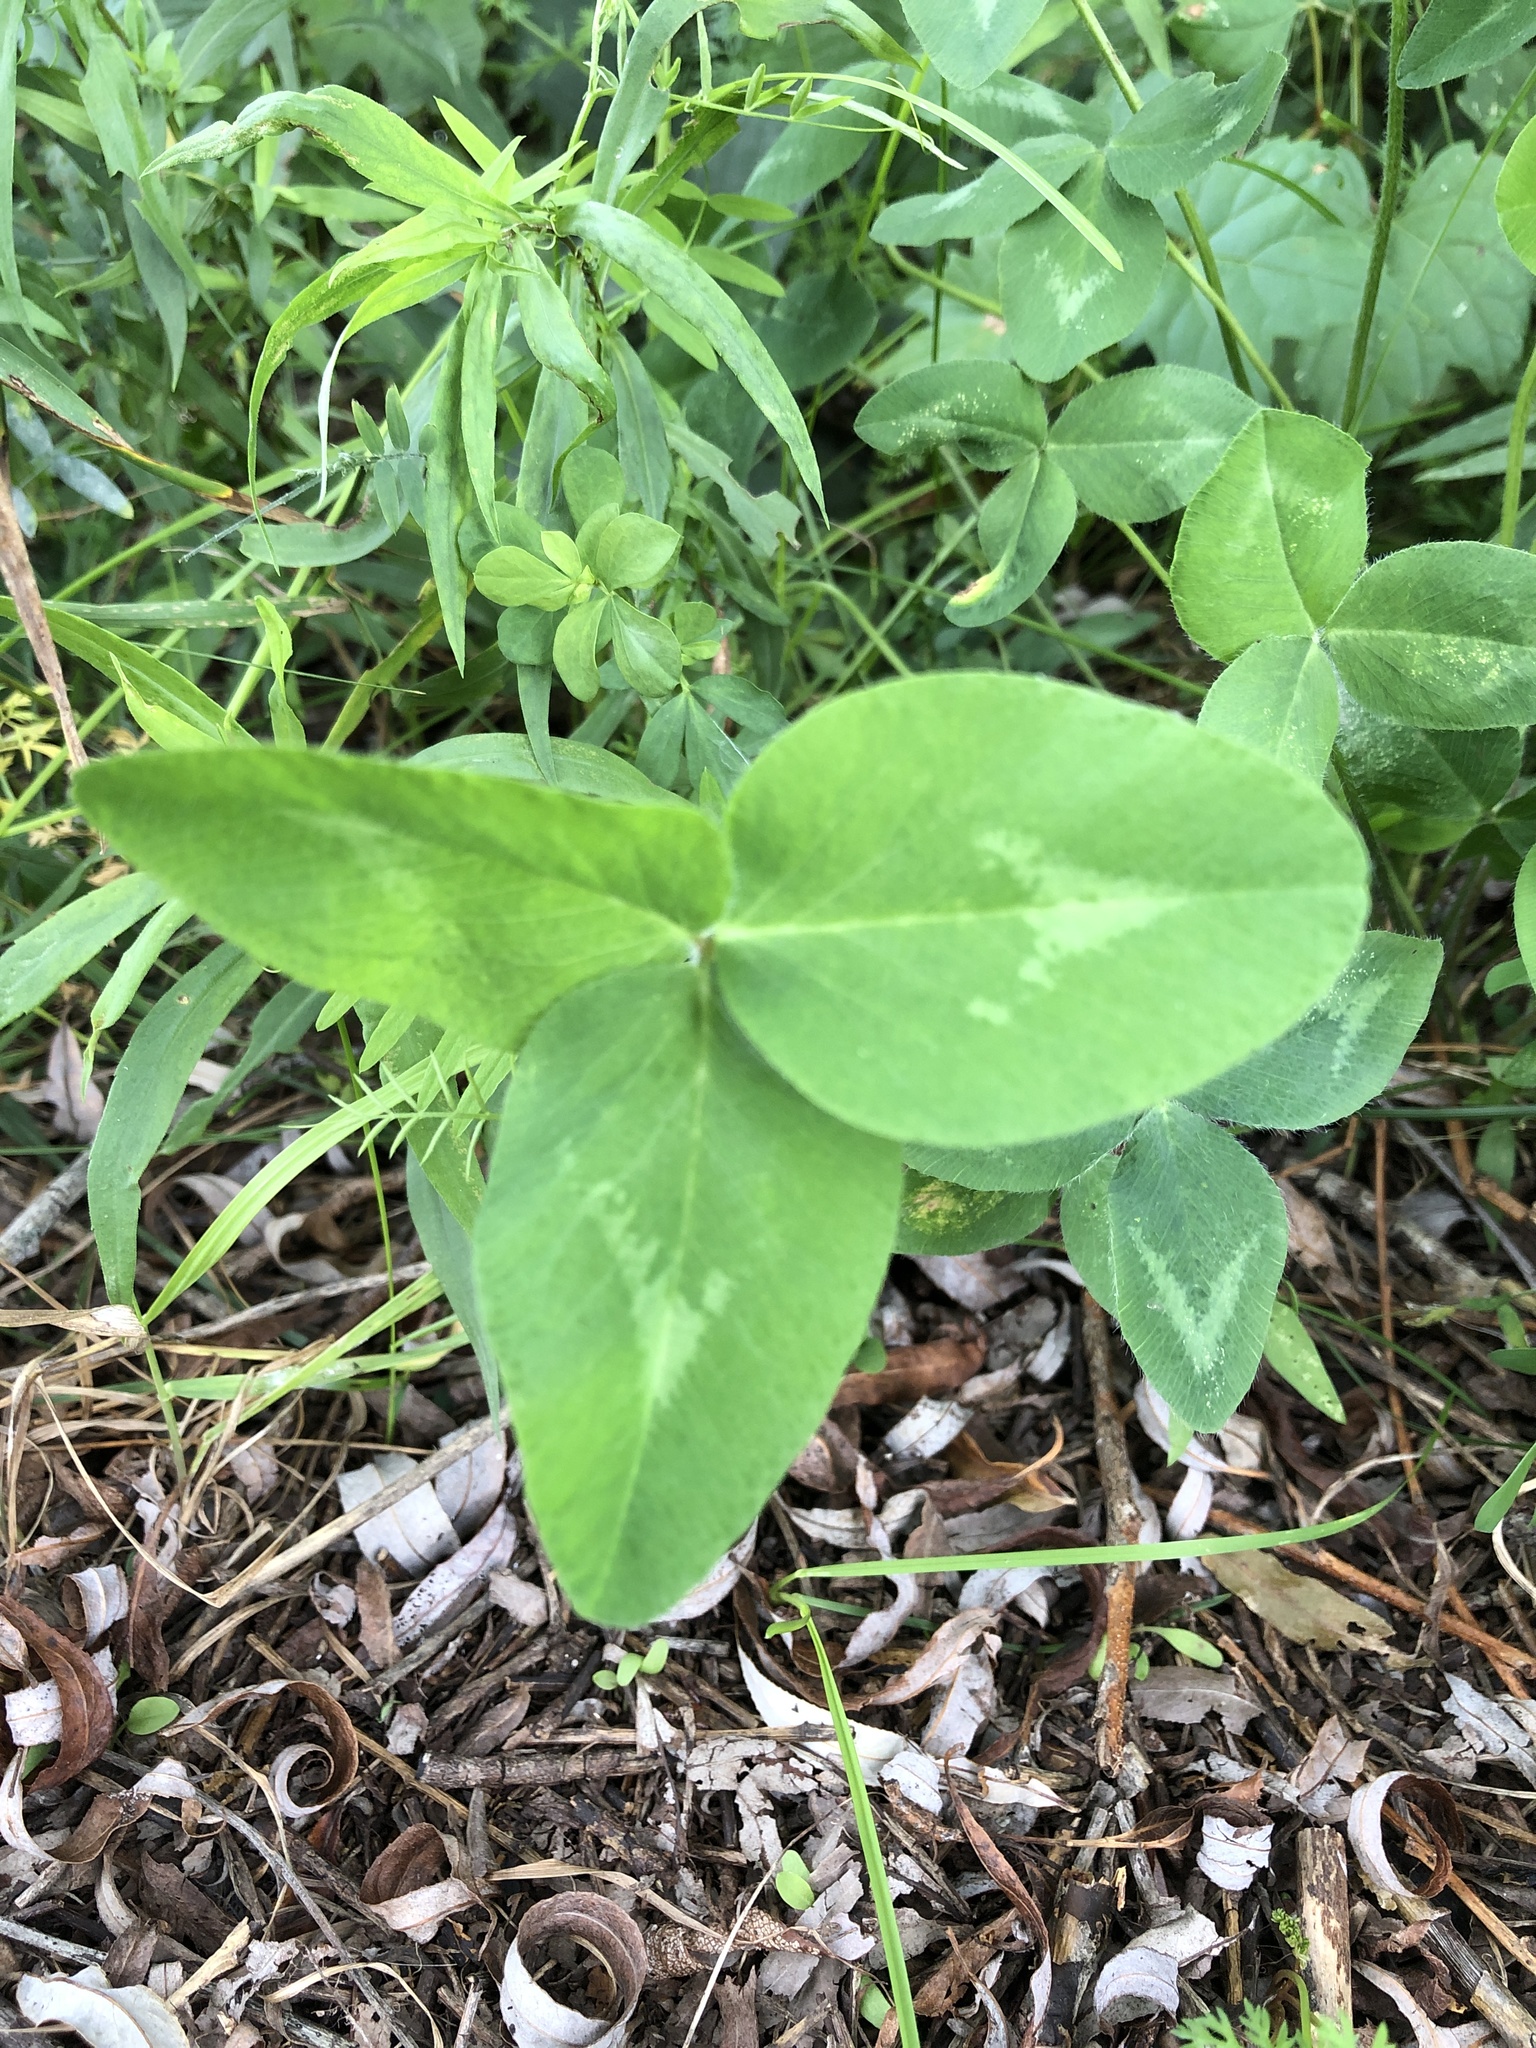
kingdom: Plantae
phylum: Tracheophyta
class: Magnoliopsida
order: Fabales
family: Fabaceae
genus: Trifolium
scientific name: Trifolium pratense
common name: Red clover
